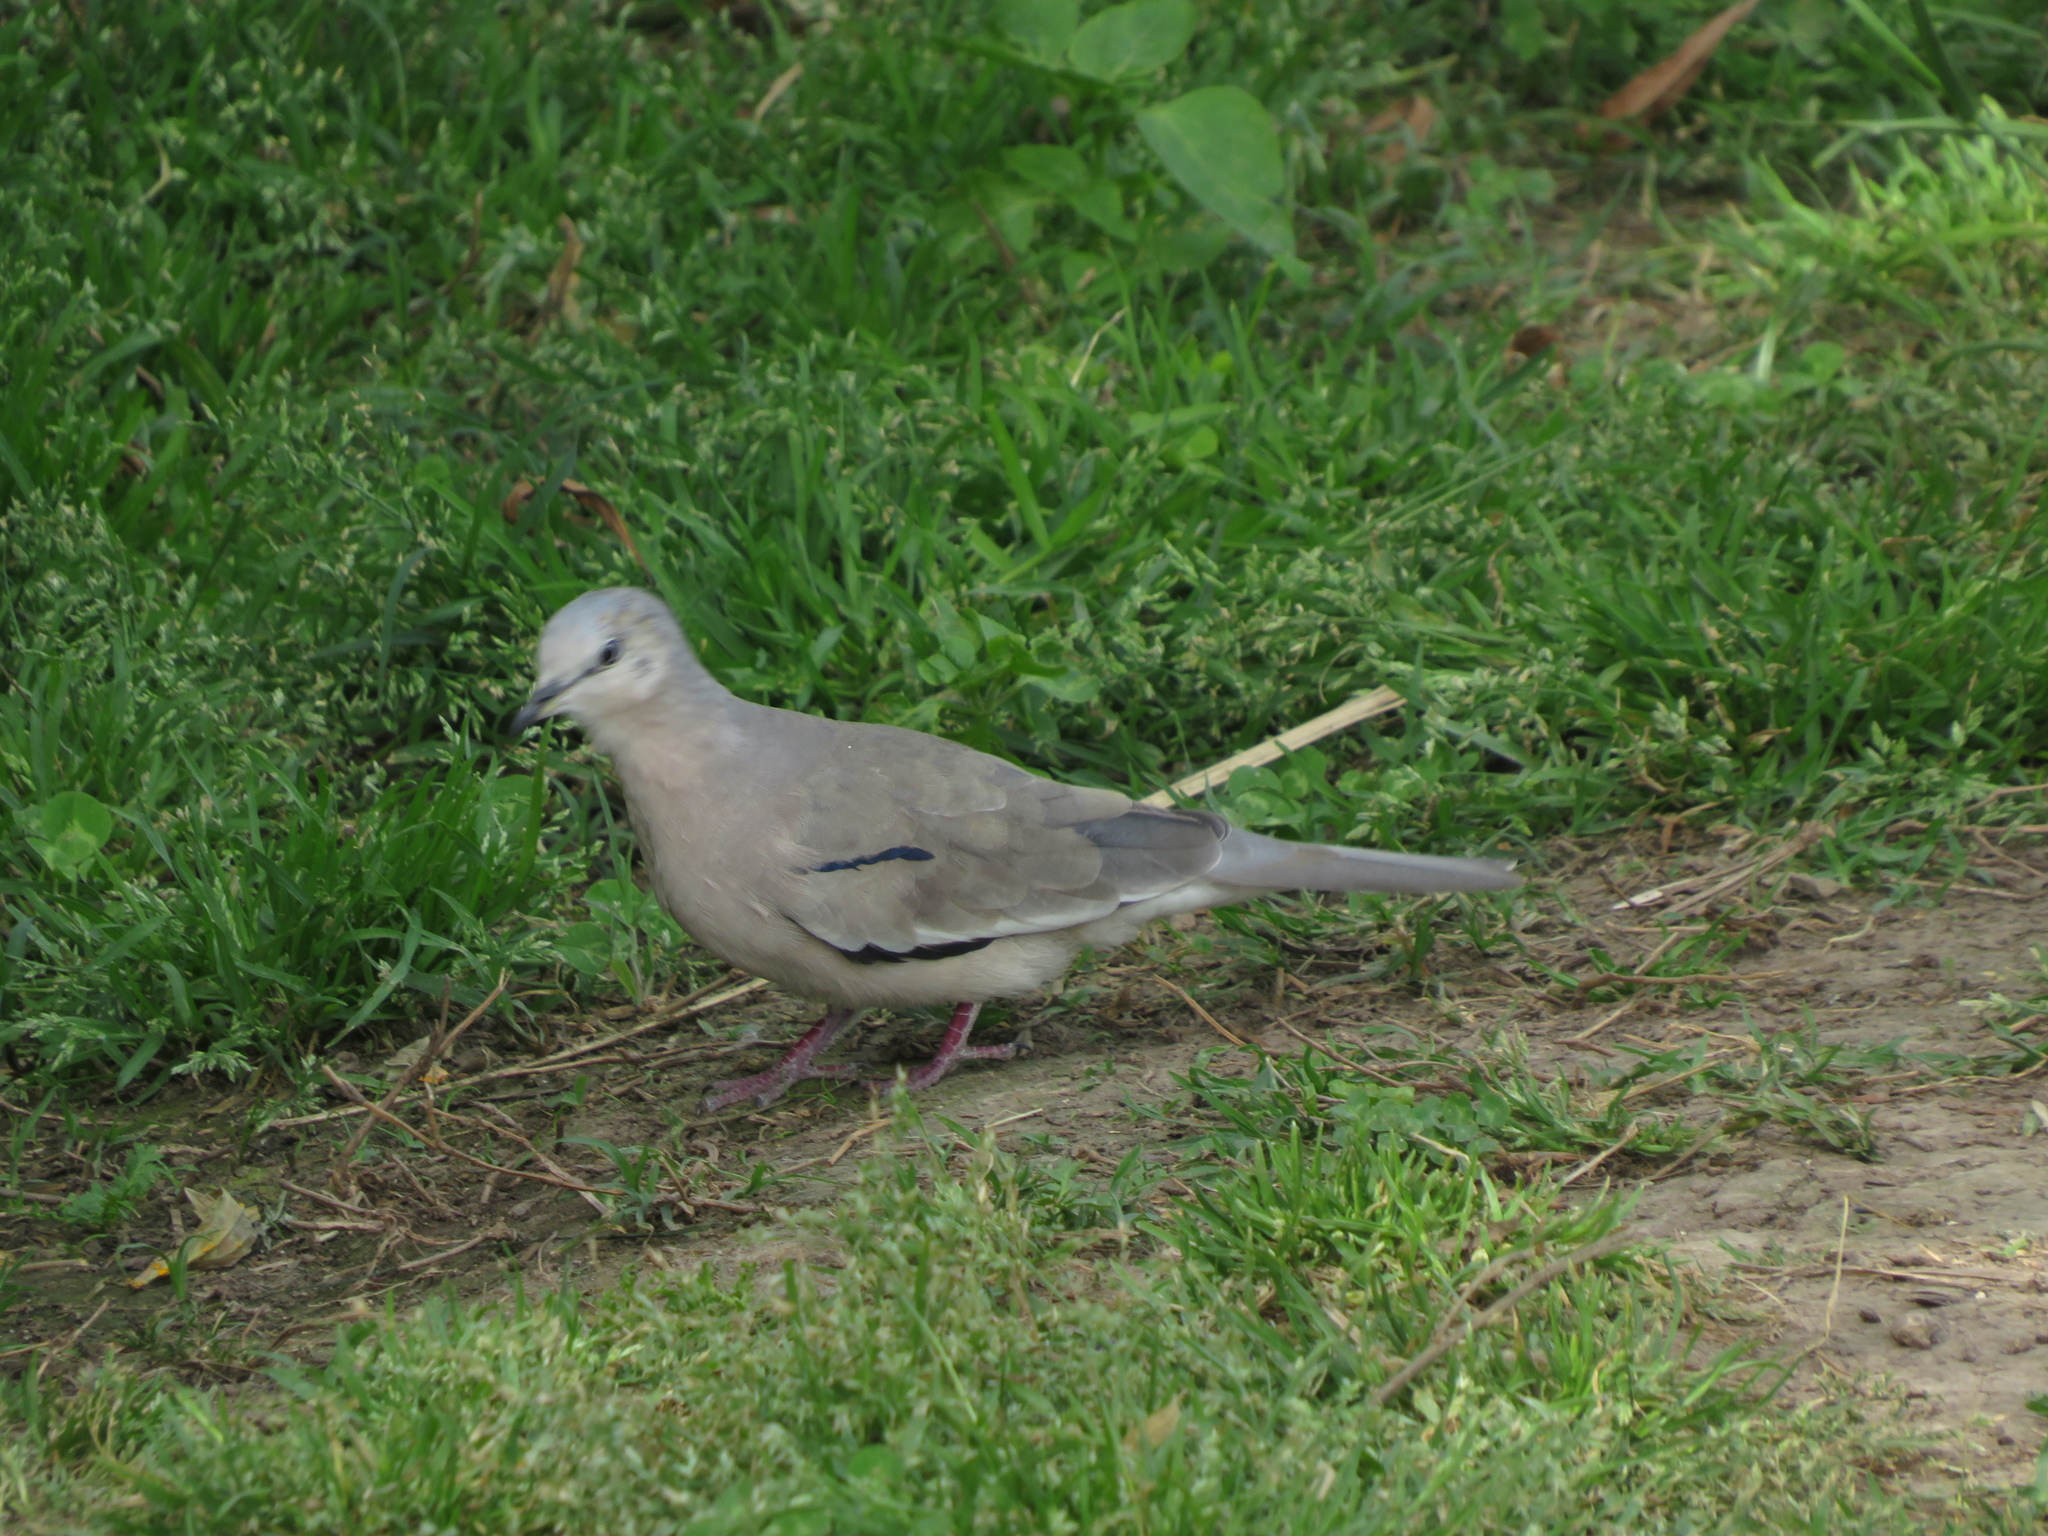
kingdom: Animalia
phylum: Chordata
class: Aves
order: Columbiformes
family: Columbidae
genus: Columbina
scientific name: Columbina picui
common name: Picui ground dove
